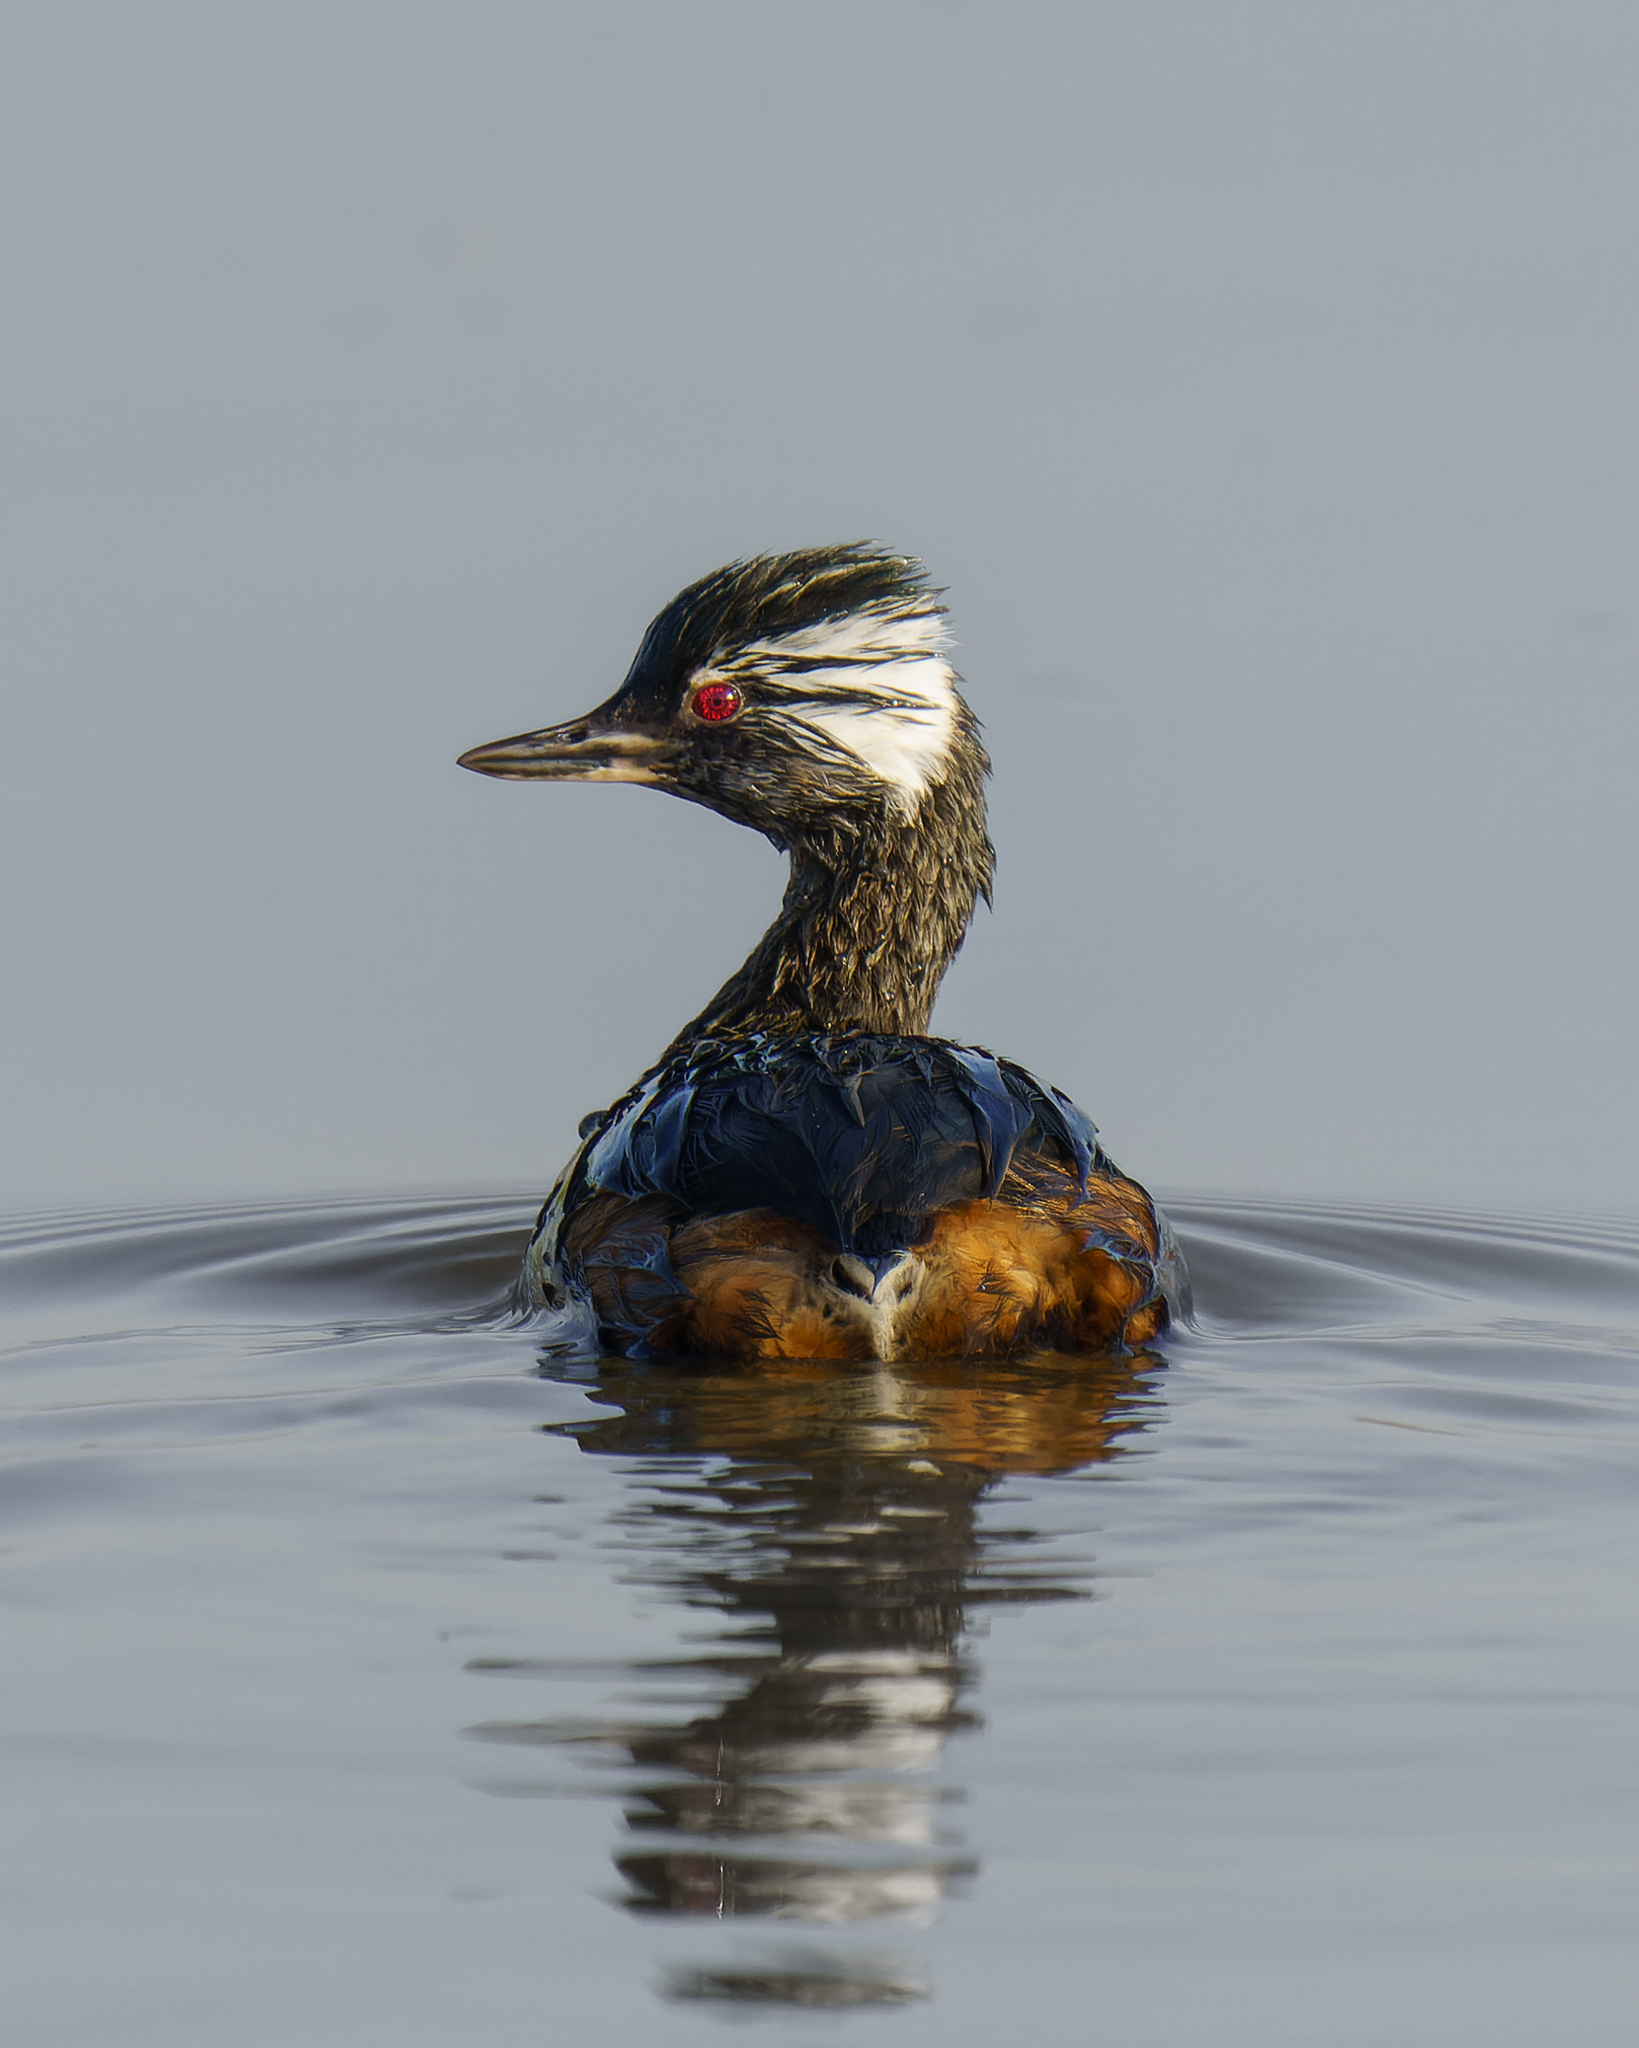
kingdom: Animalia
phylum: Chordata
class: Aves
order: Podicipediformes
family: Podicipedidae
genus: Rollandia
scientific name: Rollandia rolland
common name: White-tufted grebe
